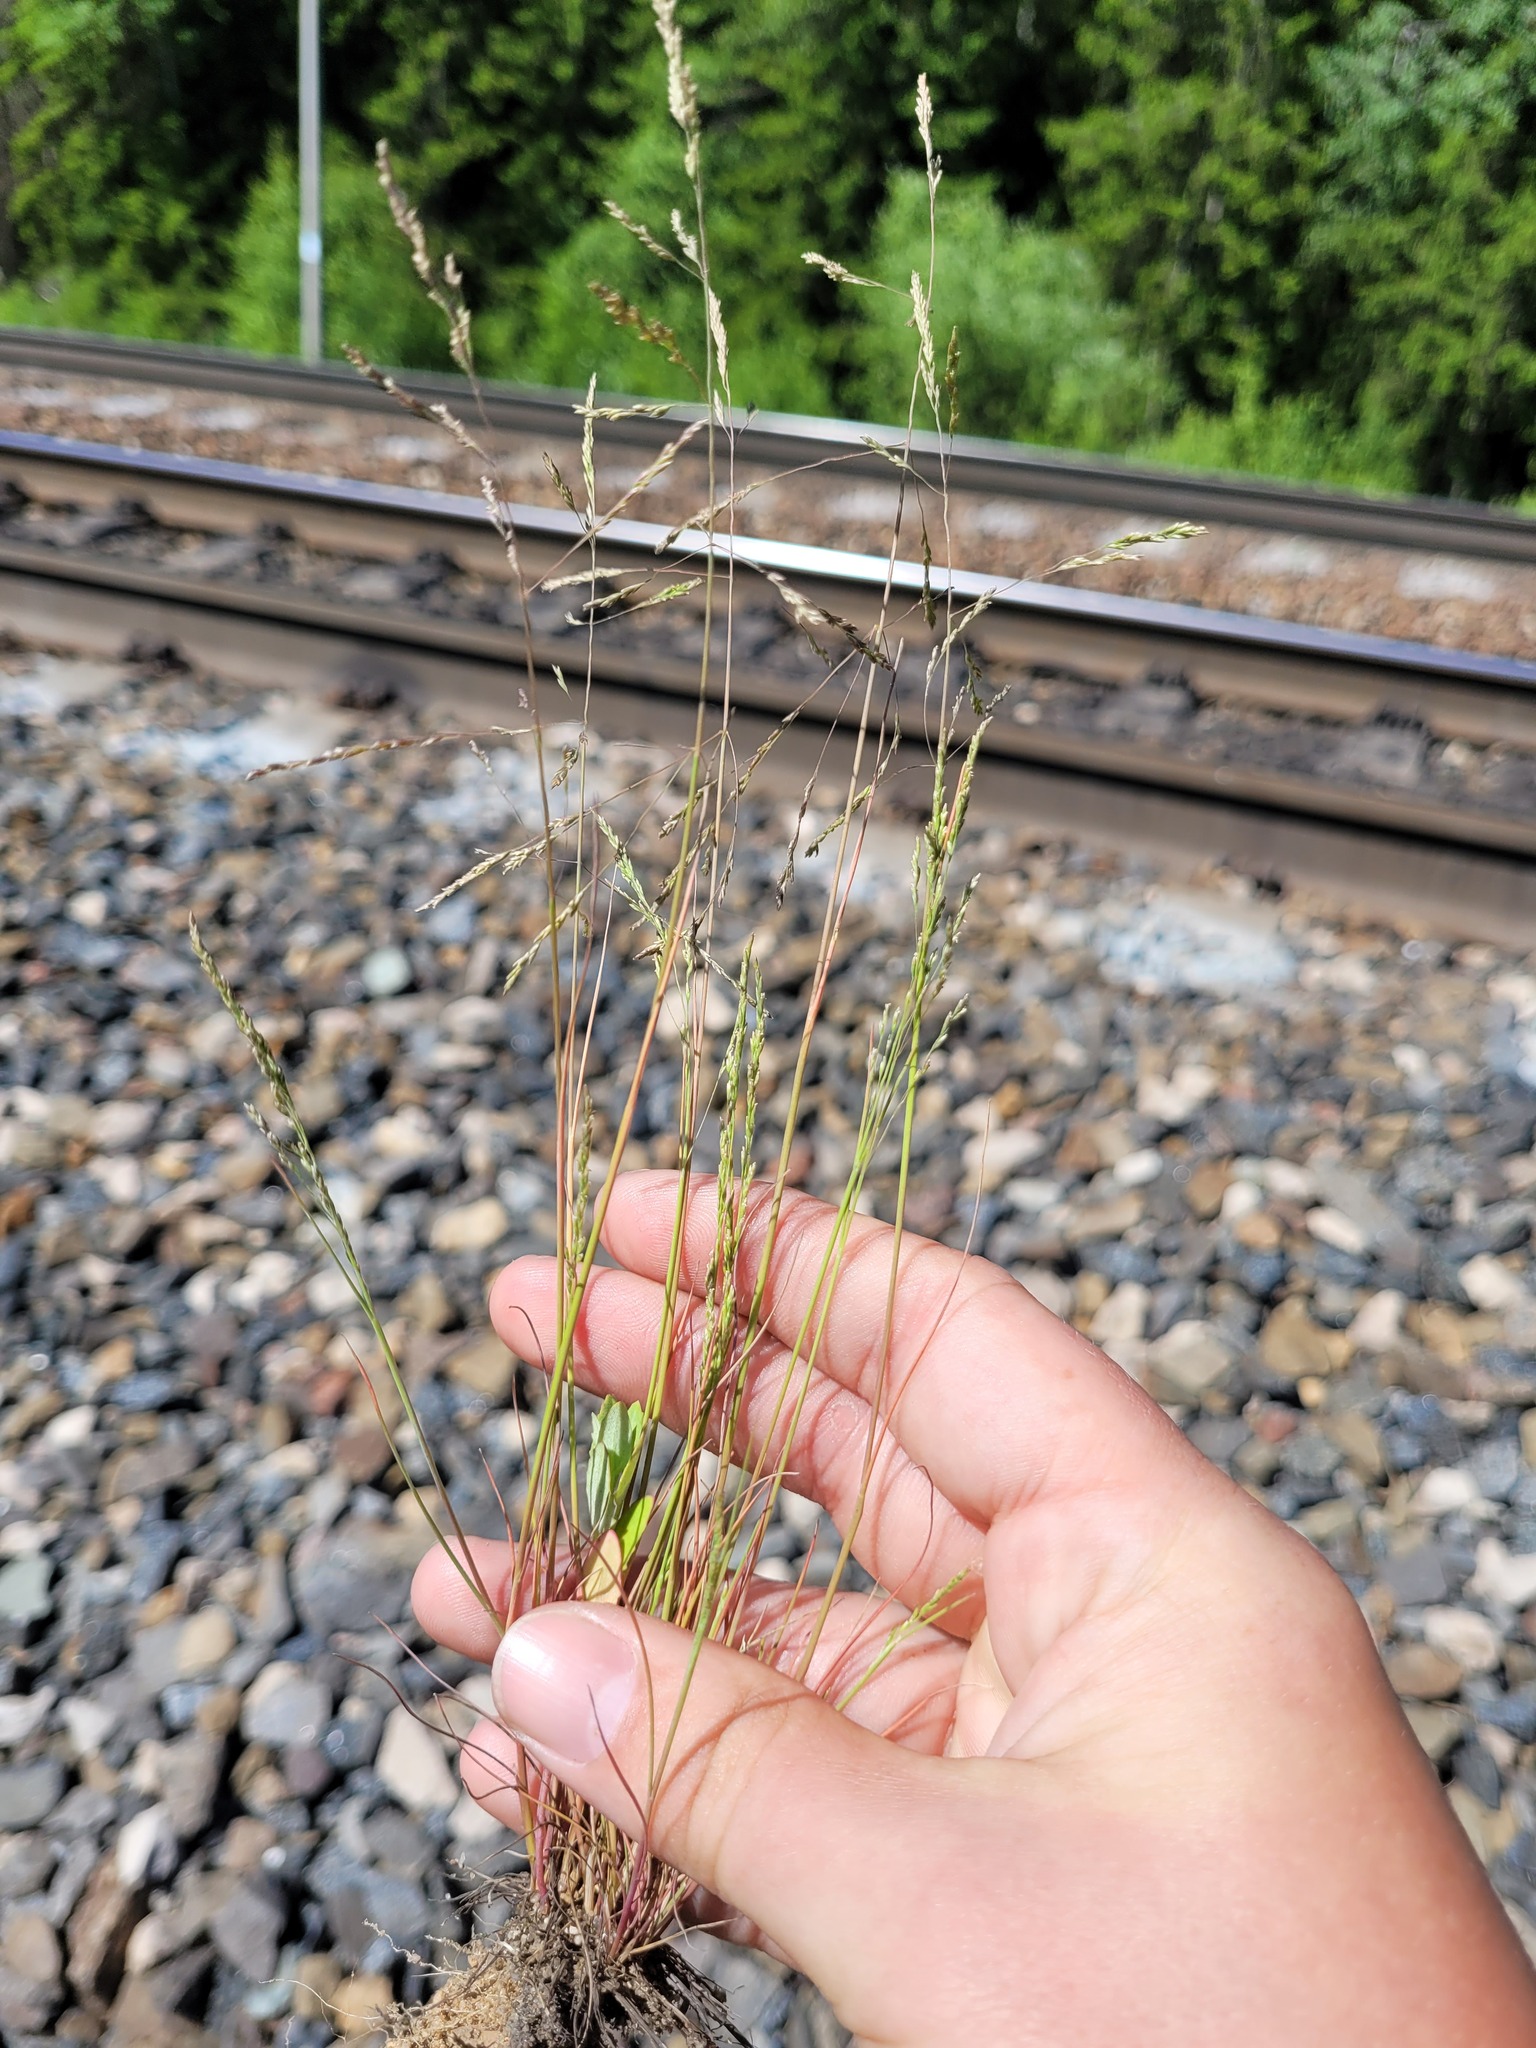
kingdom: Plantae
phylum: Tracheophyta
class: Liliopsida
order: Poales
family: Poaceae
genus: Puccinellia
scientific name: Puccinellia distans
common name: Weeping alkaligrass
